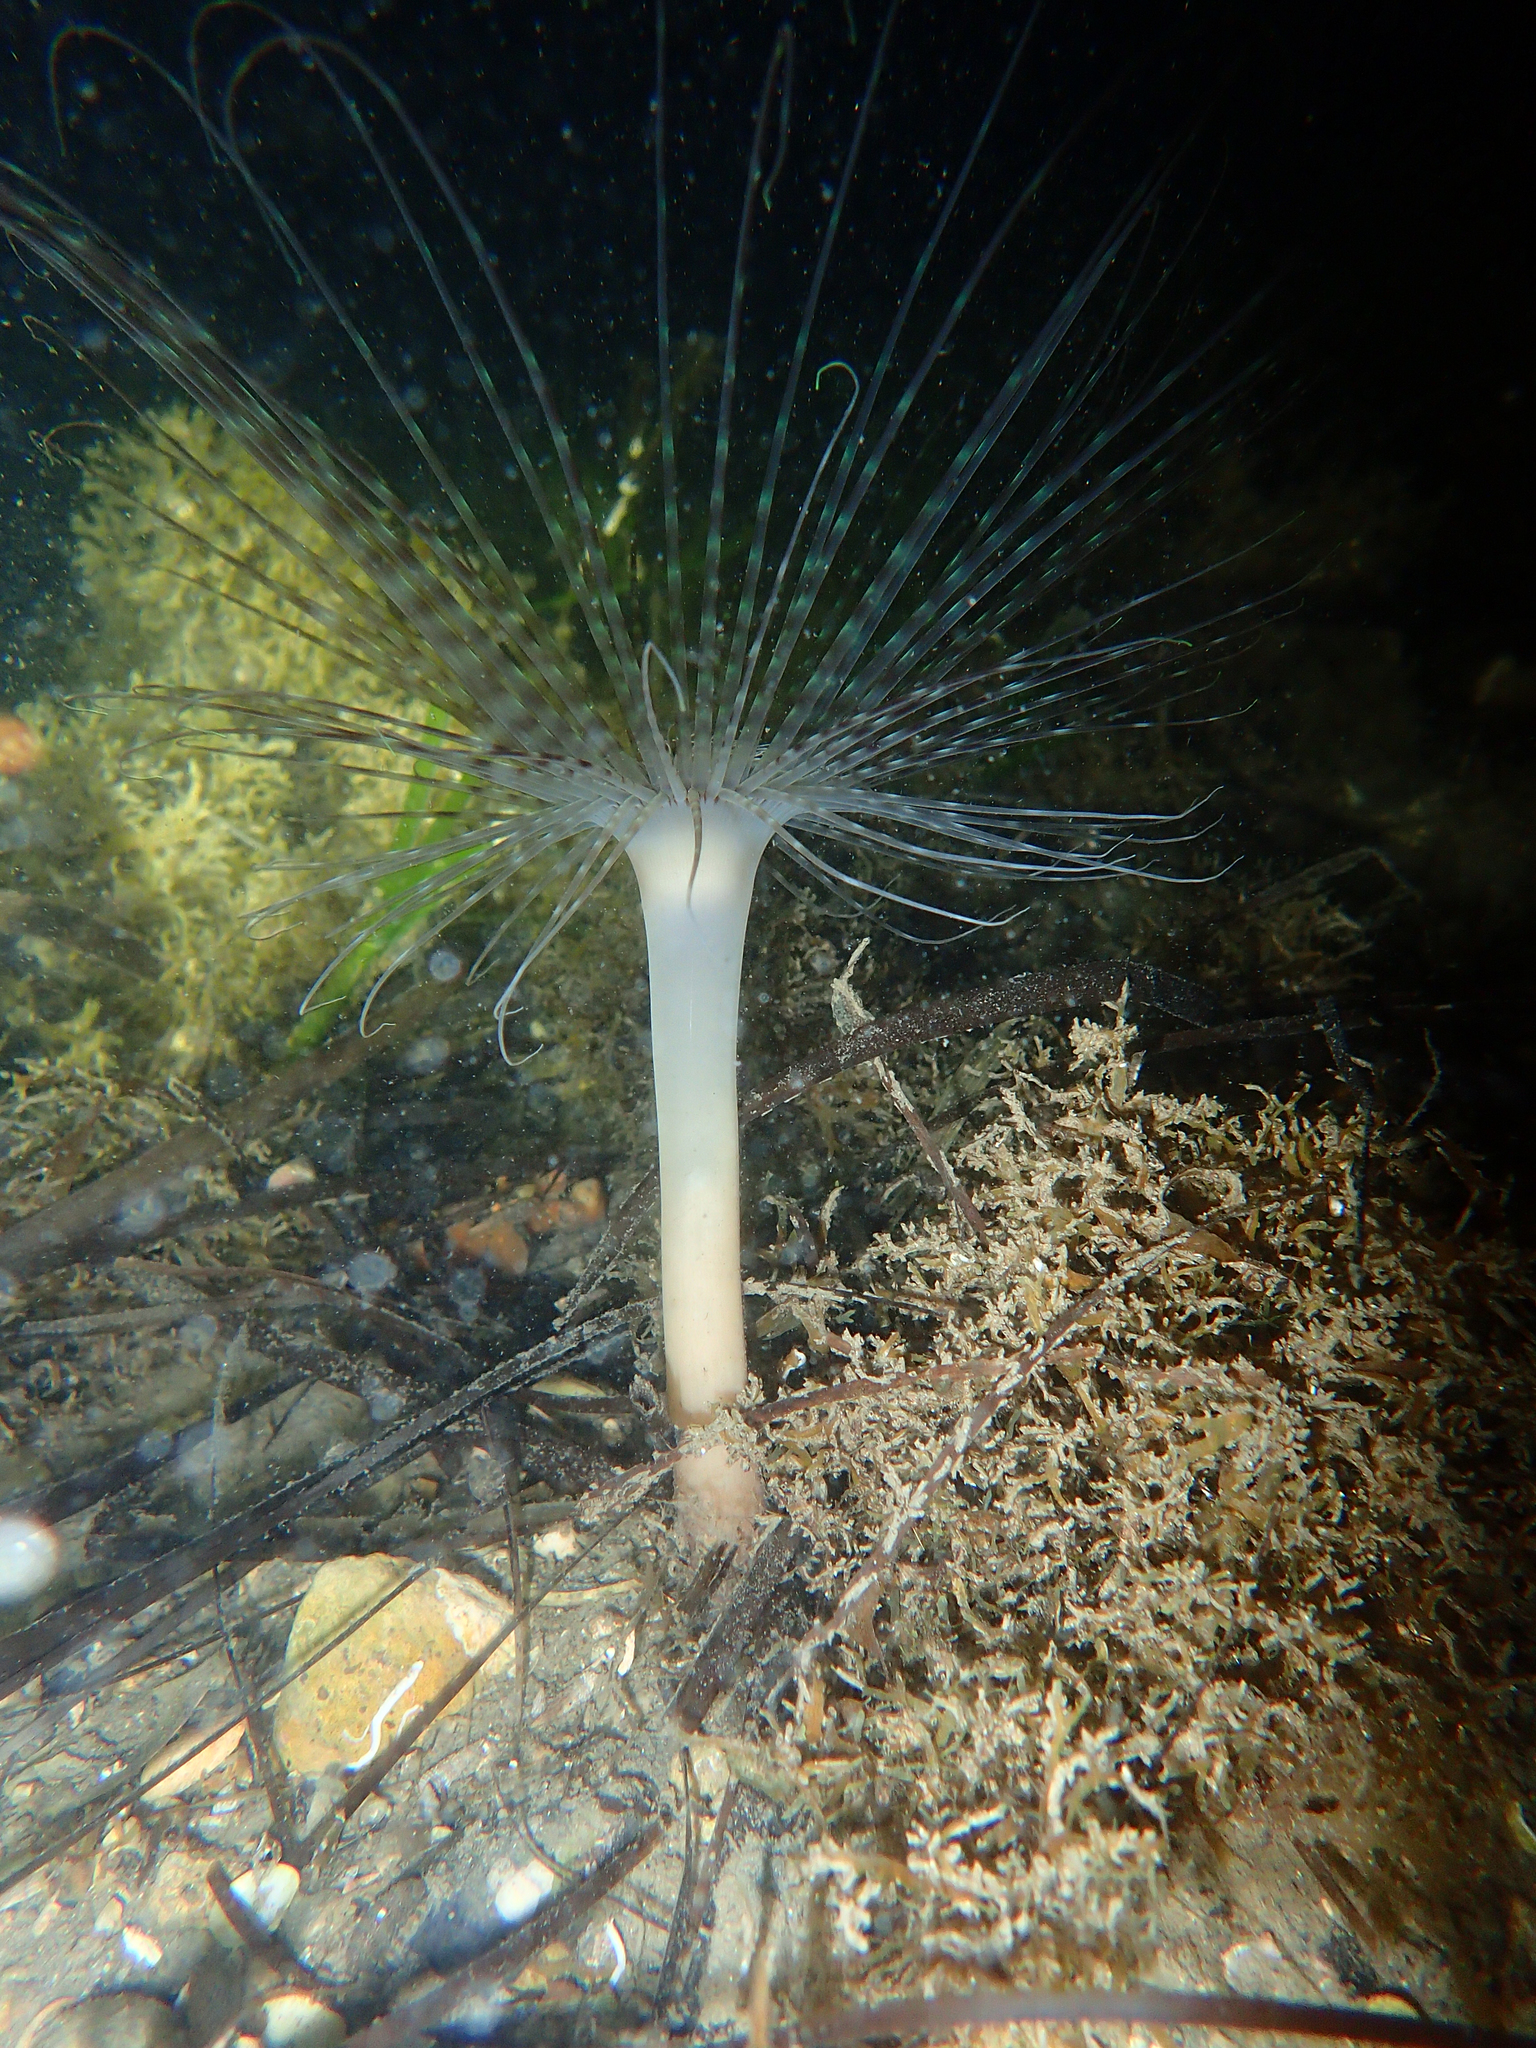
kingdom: Animalia
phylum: Cnidaria
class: Anthozoa
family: Cerianthidae
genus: Pachycerianthus
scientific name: Pachycerianthus solitarius
